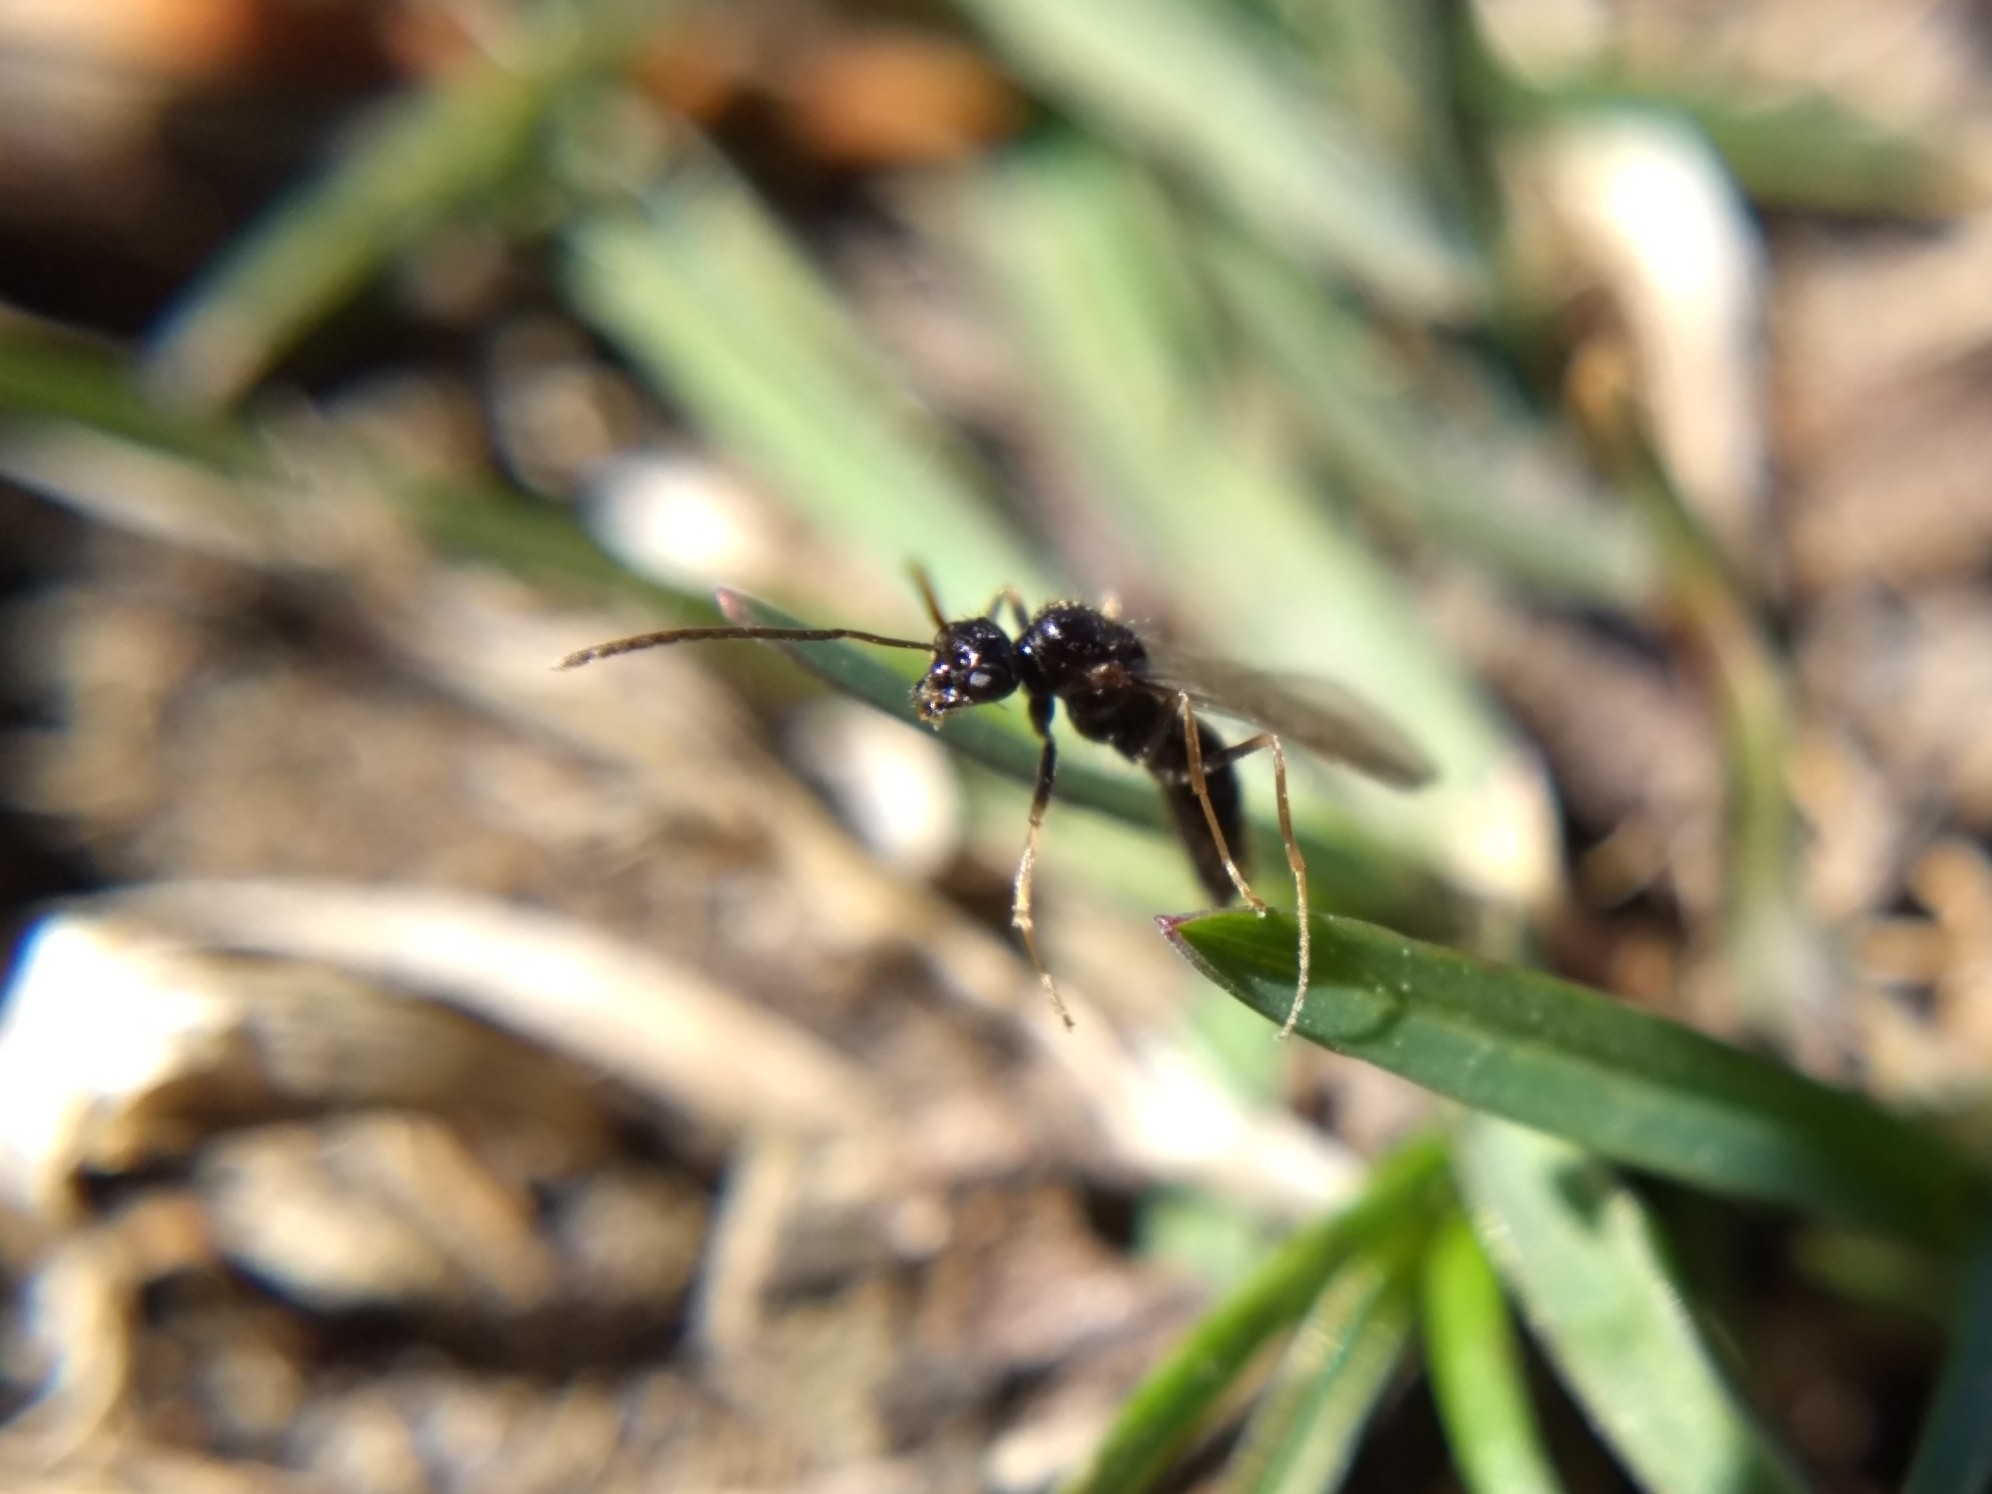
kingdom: Animalia
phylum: Arthropoda
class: Insecta
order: Hymenoptera
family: Formicidae
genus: Prenolepis
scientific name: Prenolepis imparis
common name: Small honey ant
